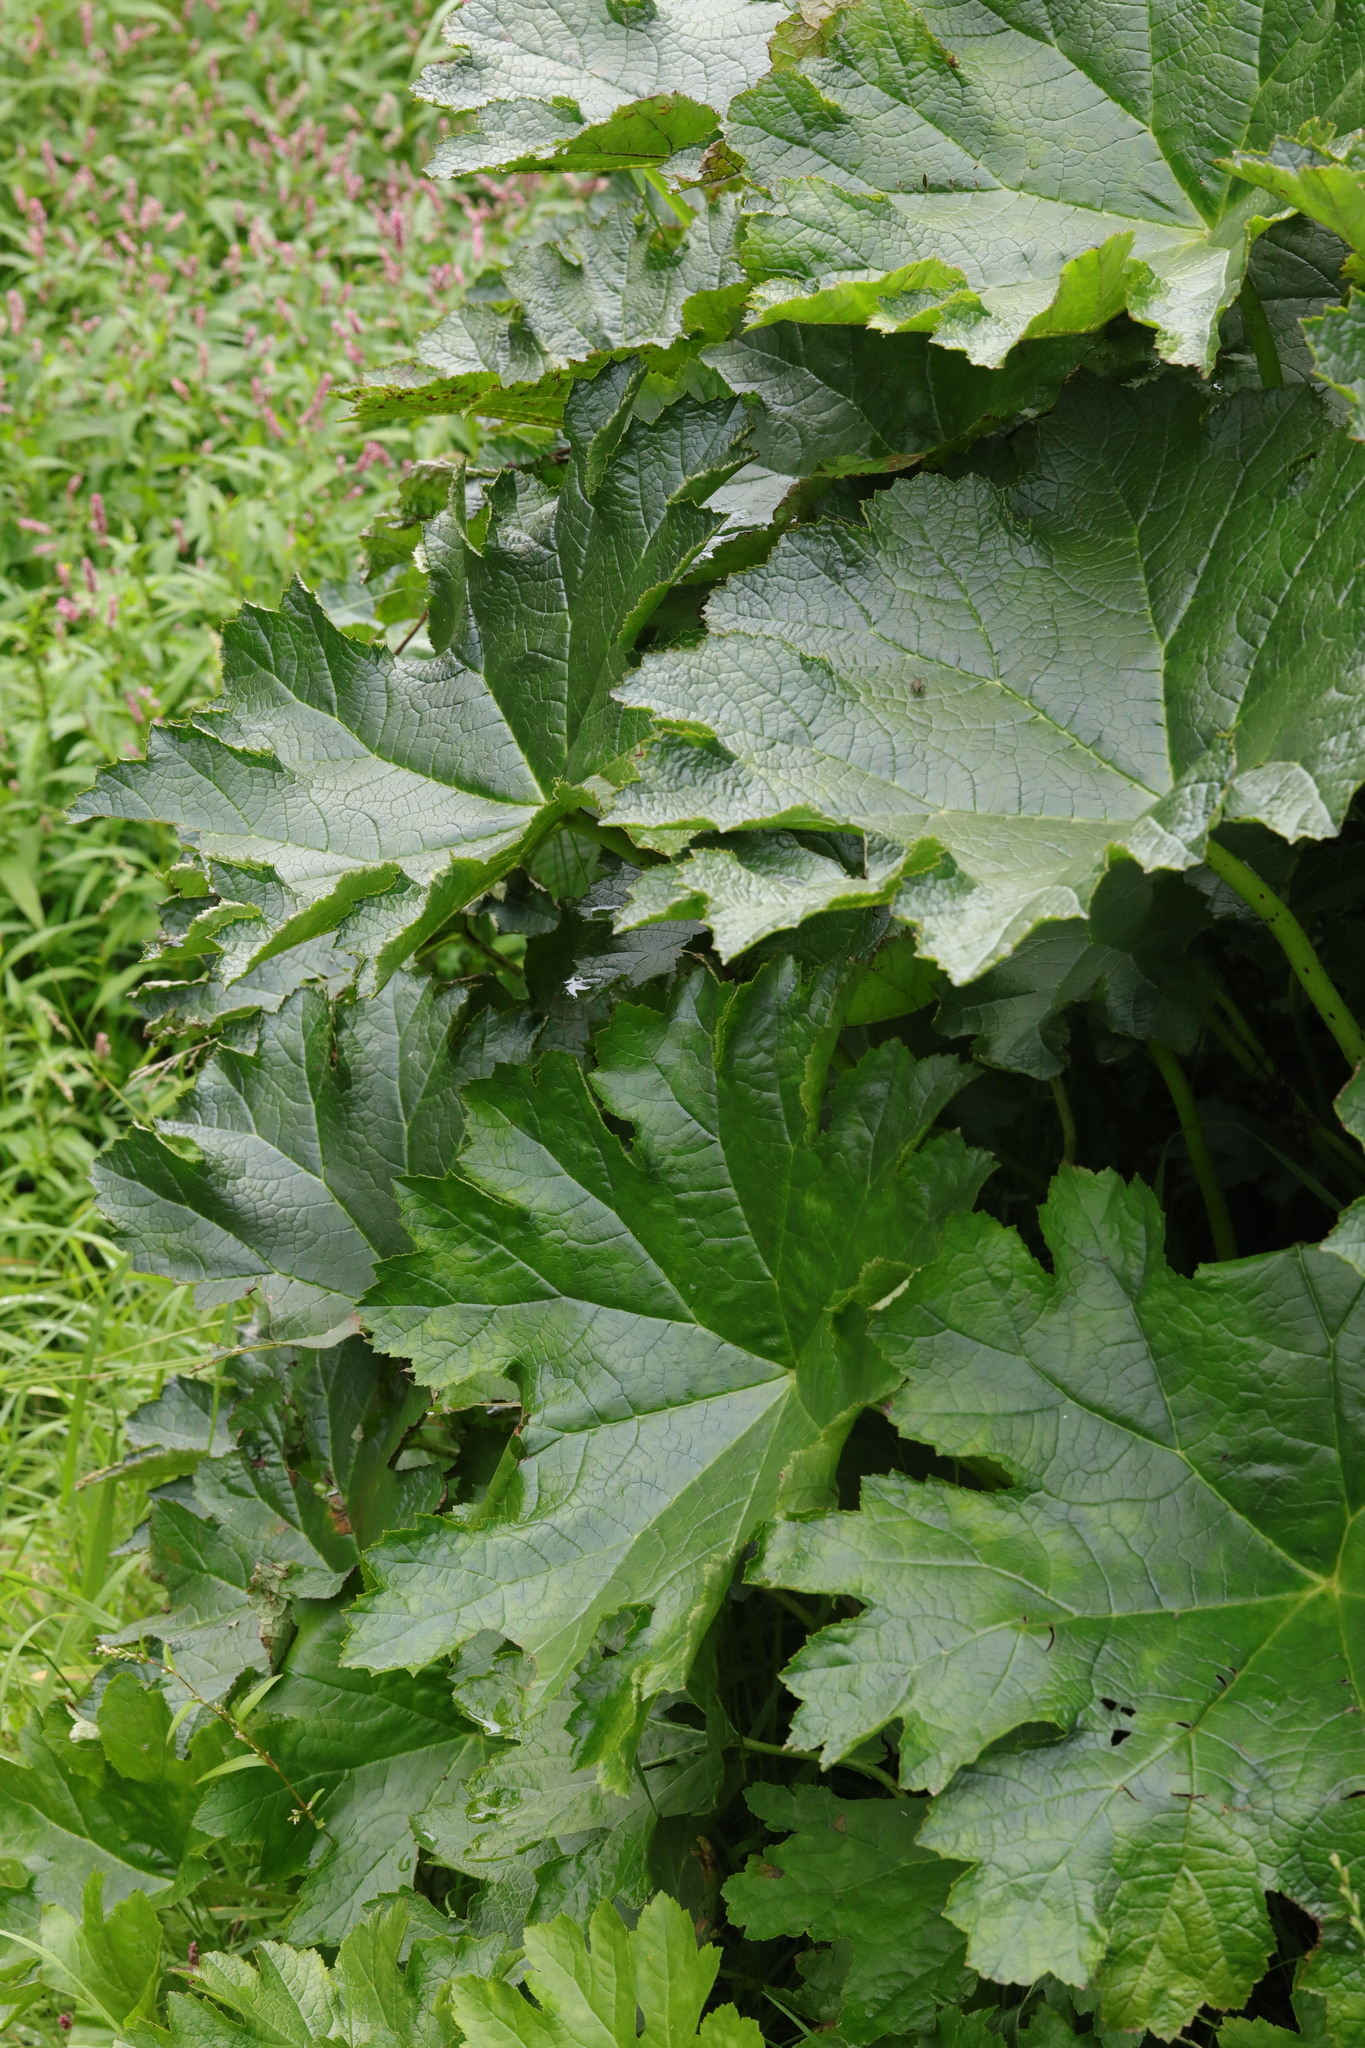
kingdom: Plantae
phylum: Tracheophyta
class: Magnoliopsida
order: Saxifragales
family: Saxifragaceae
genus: Darmera
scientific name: Darmera peltata
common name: Indian-rhubarb
